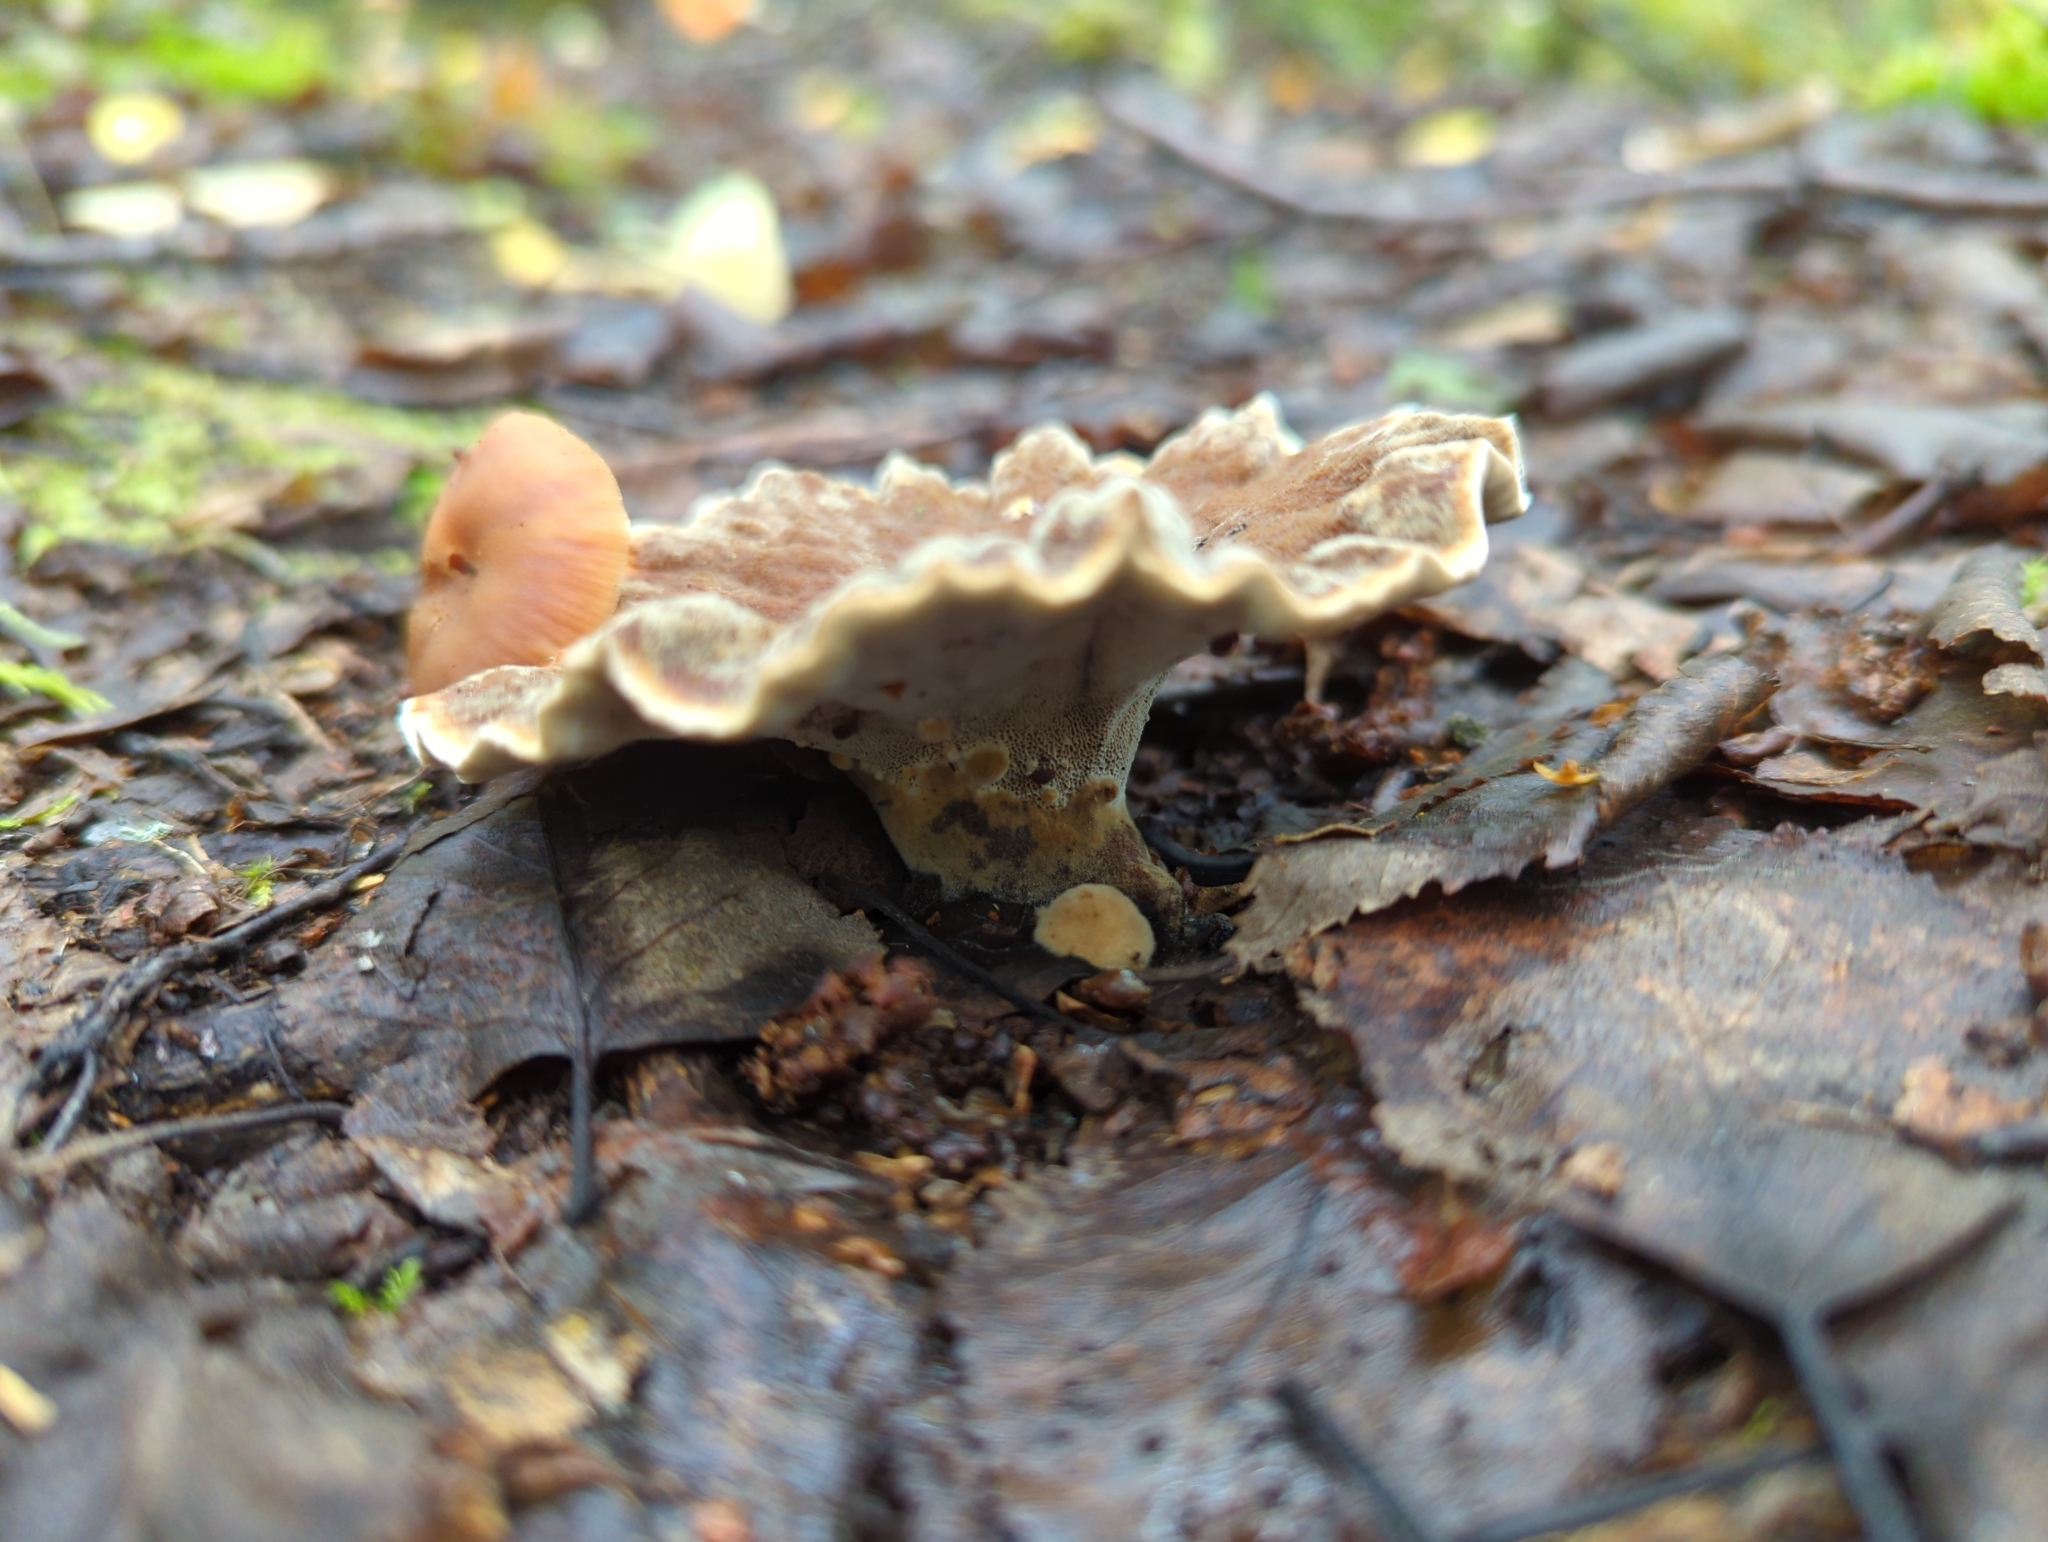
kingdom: Fungi
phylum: Basidiomycota
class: Agaricomycetes
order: Hymenochaetales
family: Hymenochaetaceae
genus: Onnia
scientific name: Onnia tomentosa
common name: Velvet rosette
